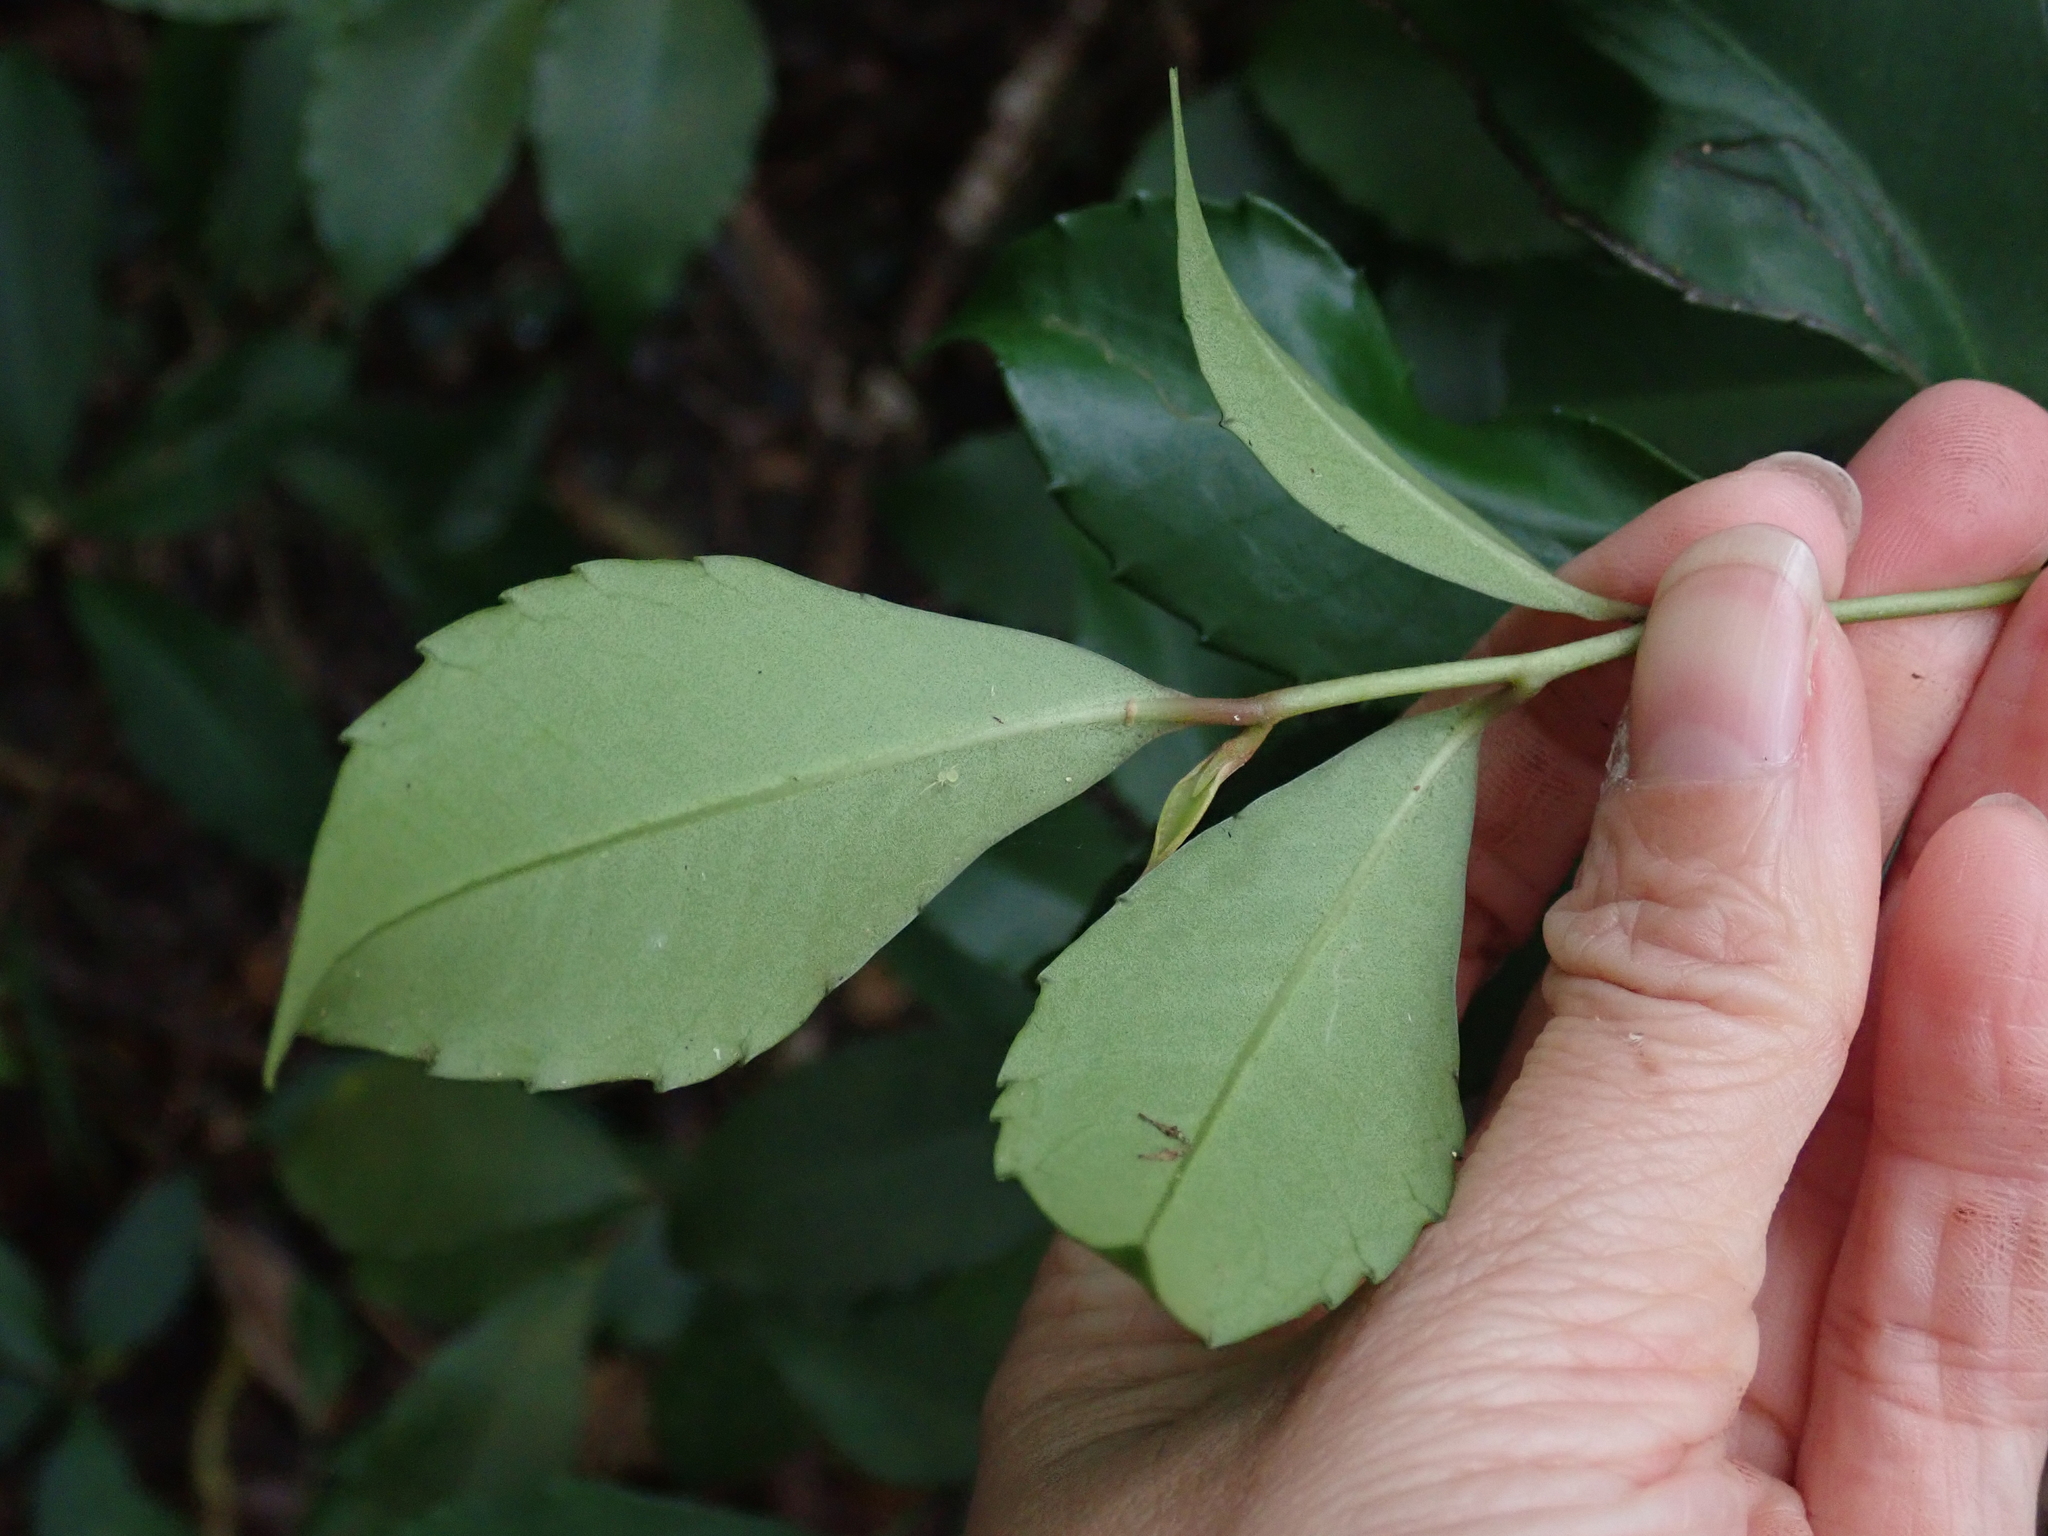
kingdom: Plantae
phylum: Tracheophyta
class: Magnoliopsida
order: Ericales
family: Primulaceae
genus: Ardisia
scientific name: Ardisia cornudentata
